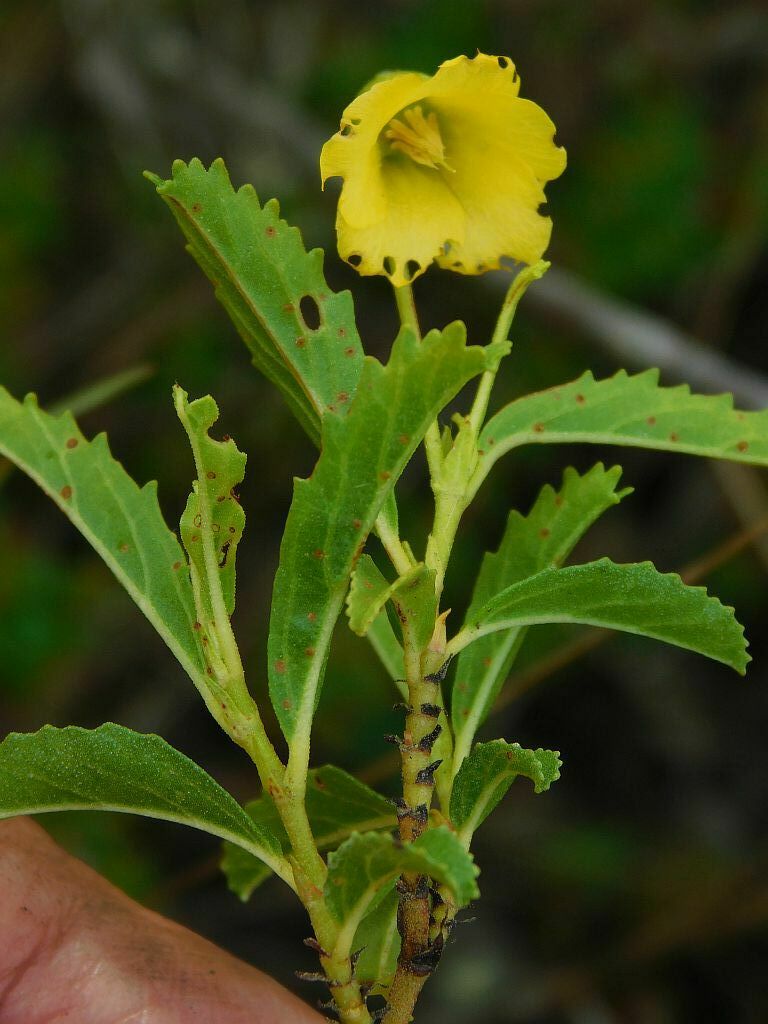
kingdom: Plantae
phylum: Tracheophyta
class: Magnoliopsida
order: Malvales
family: Malvaceae
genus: Hermannia
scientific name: Hermannia saccifera
